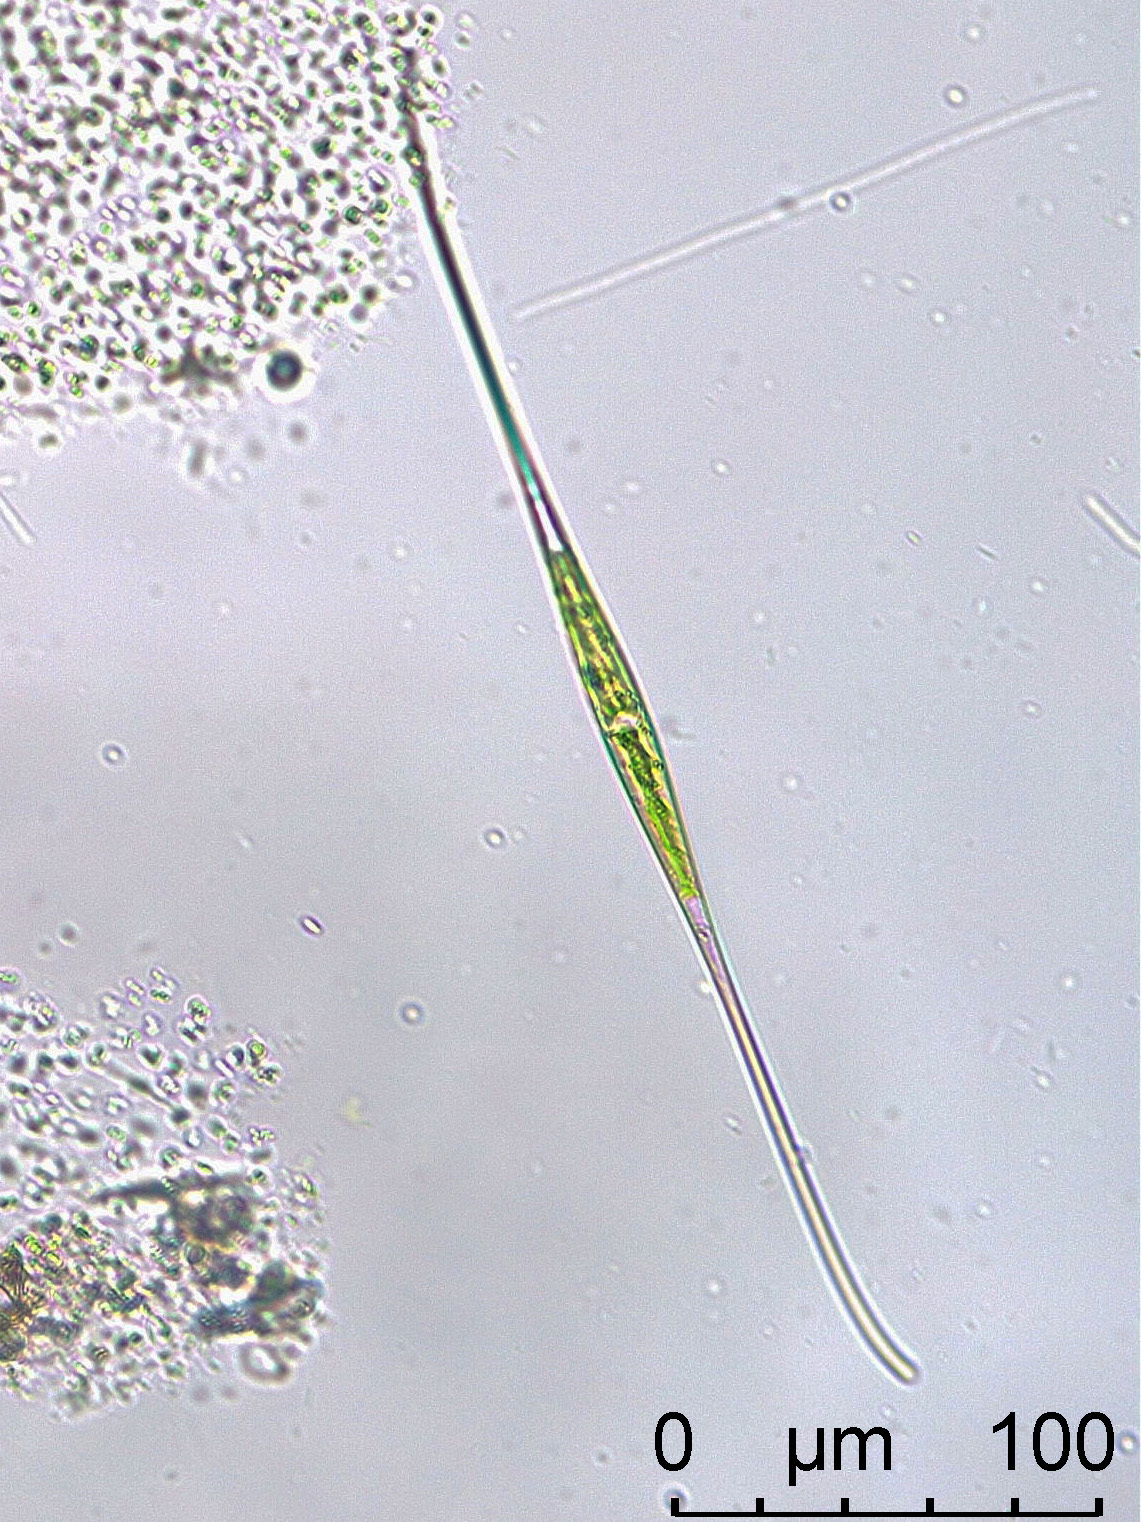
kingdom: Plantae
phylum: Charophyta
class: Zygnematophyceae
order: Zygnematales
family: Closteriaceae
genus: Closterium
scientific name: Closterium kuetzingii
